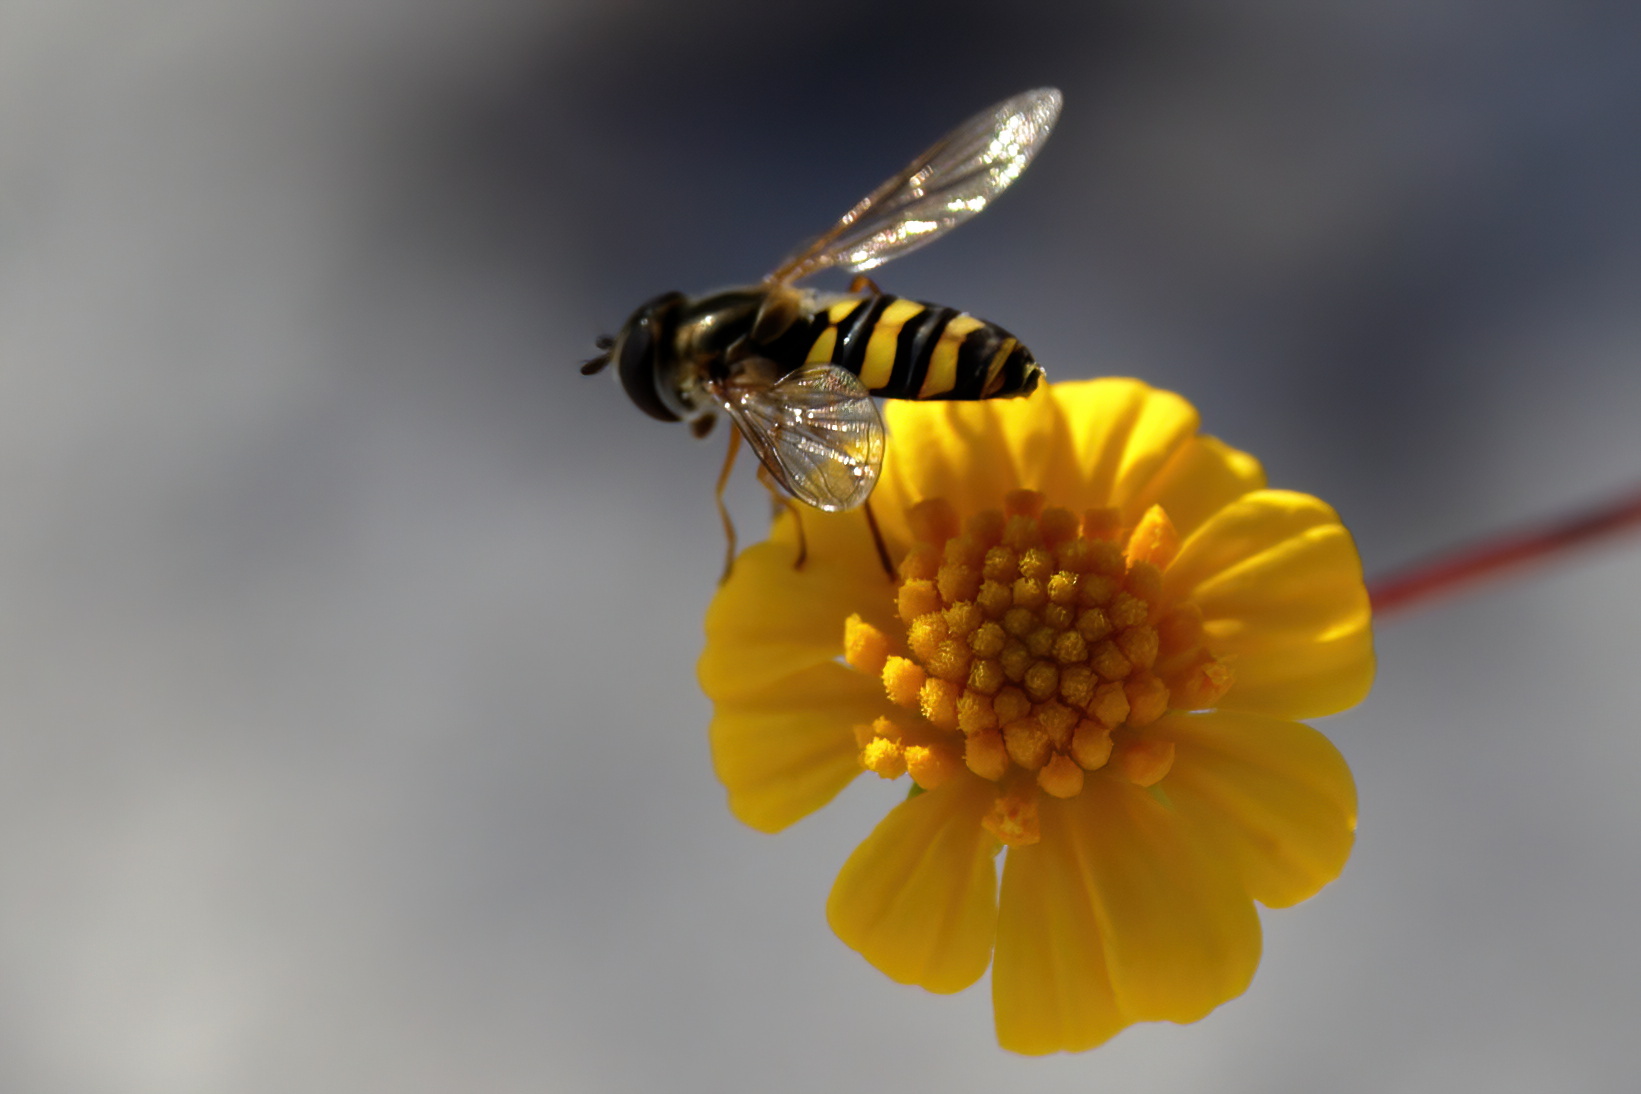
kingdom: Animalia
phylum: Arthropoda
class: Insecta
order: Diptera
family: Syrphidae
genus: Eupeodes
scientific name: Eupeodes
